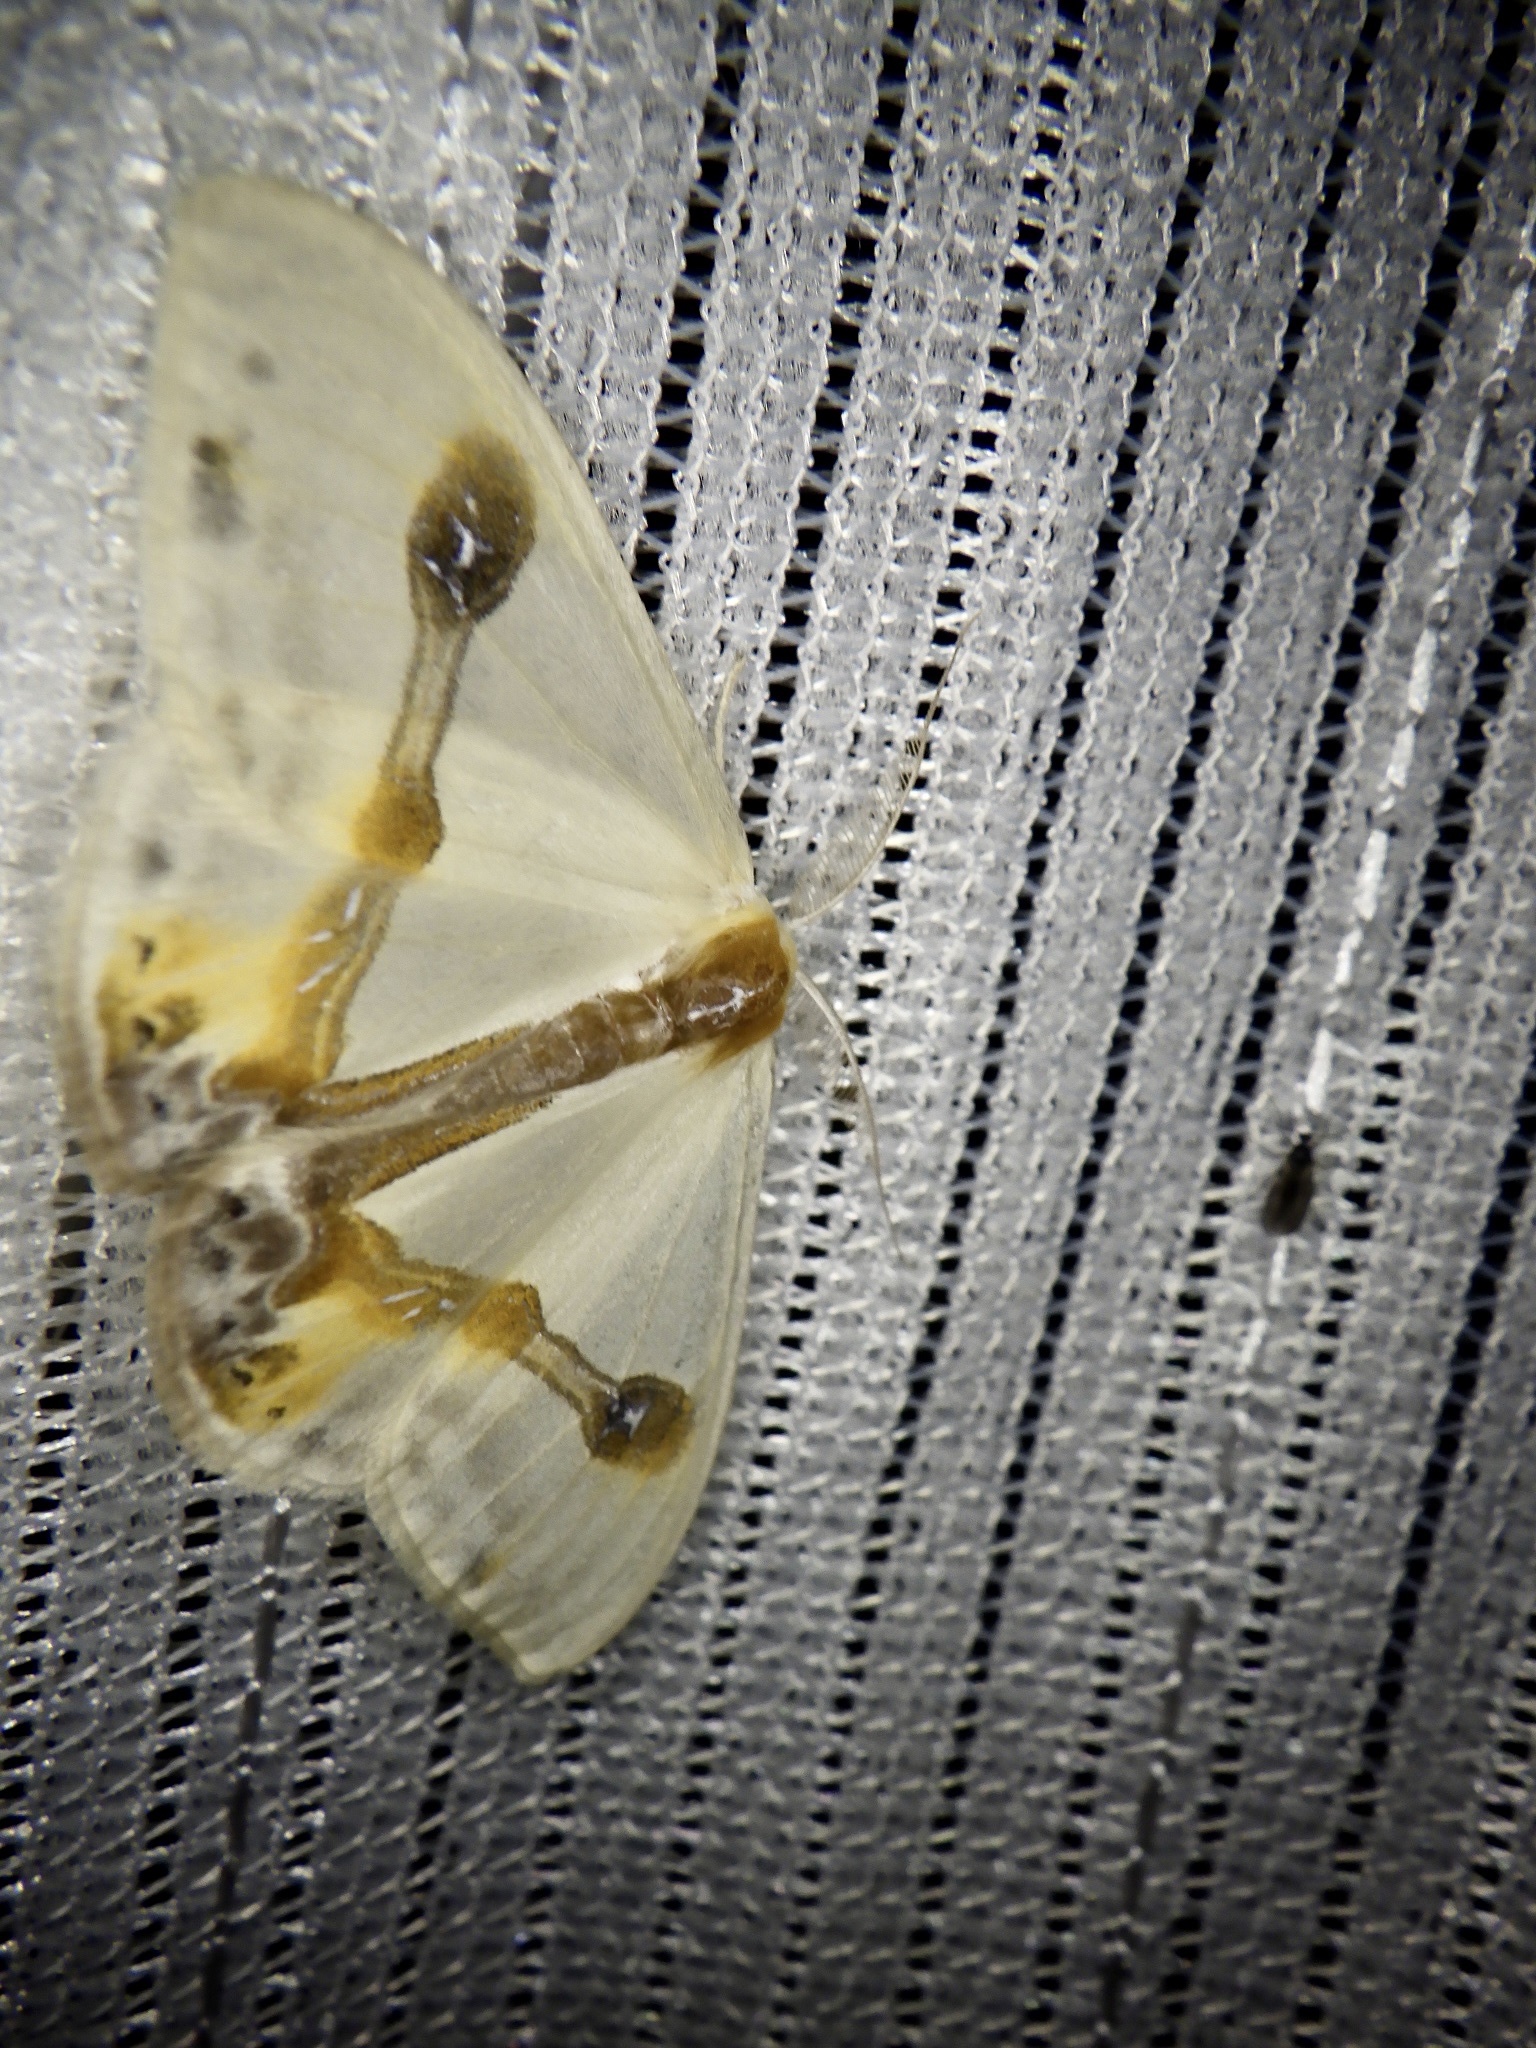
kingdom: Animalia
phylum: Arthropoda
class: Insecta
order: Lepidoptera
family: Drepanidae
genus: Macrocilix
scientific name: Macrocilix mysticata
